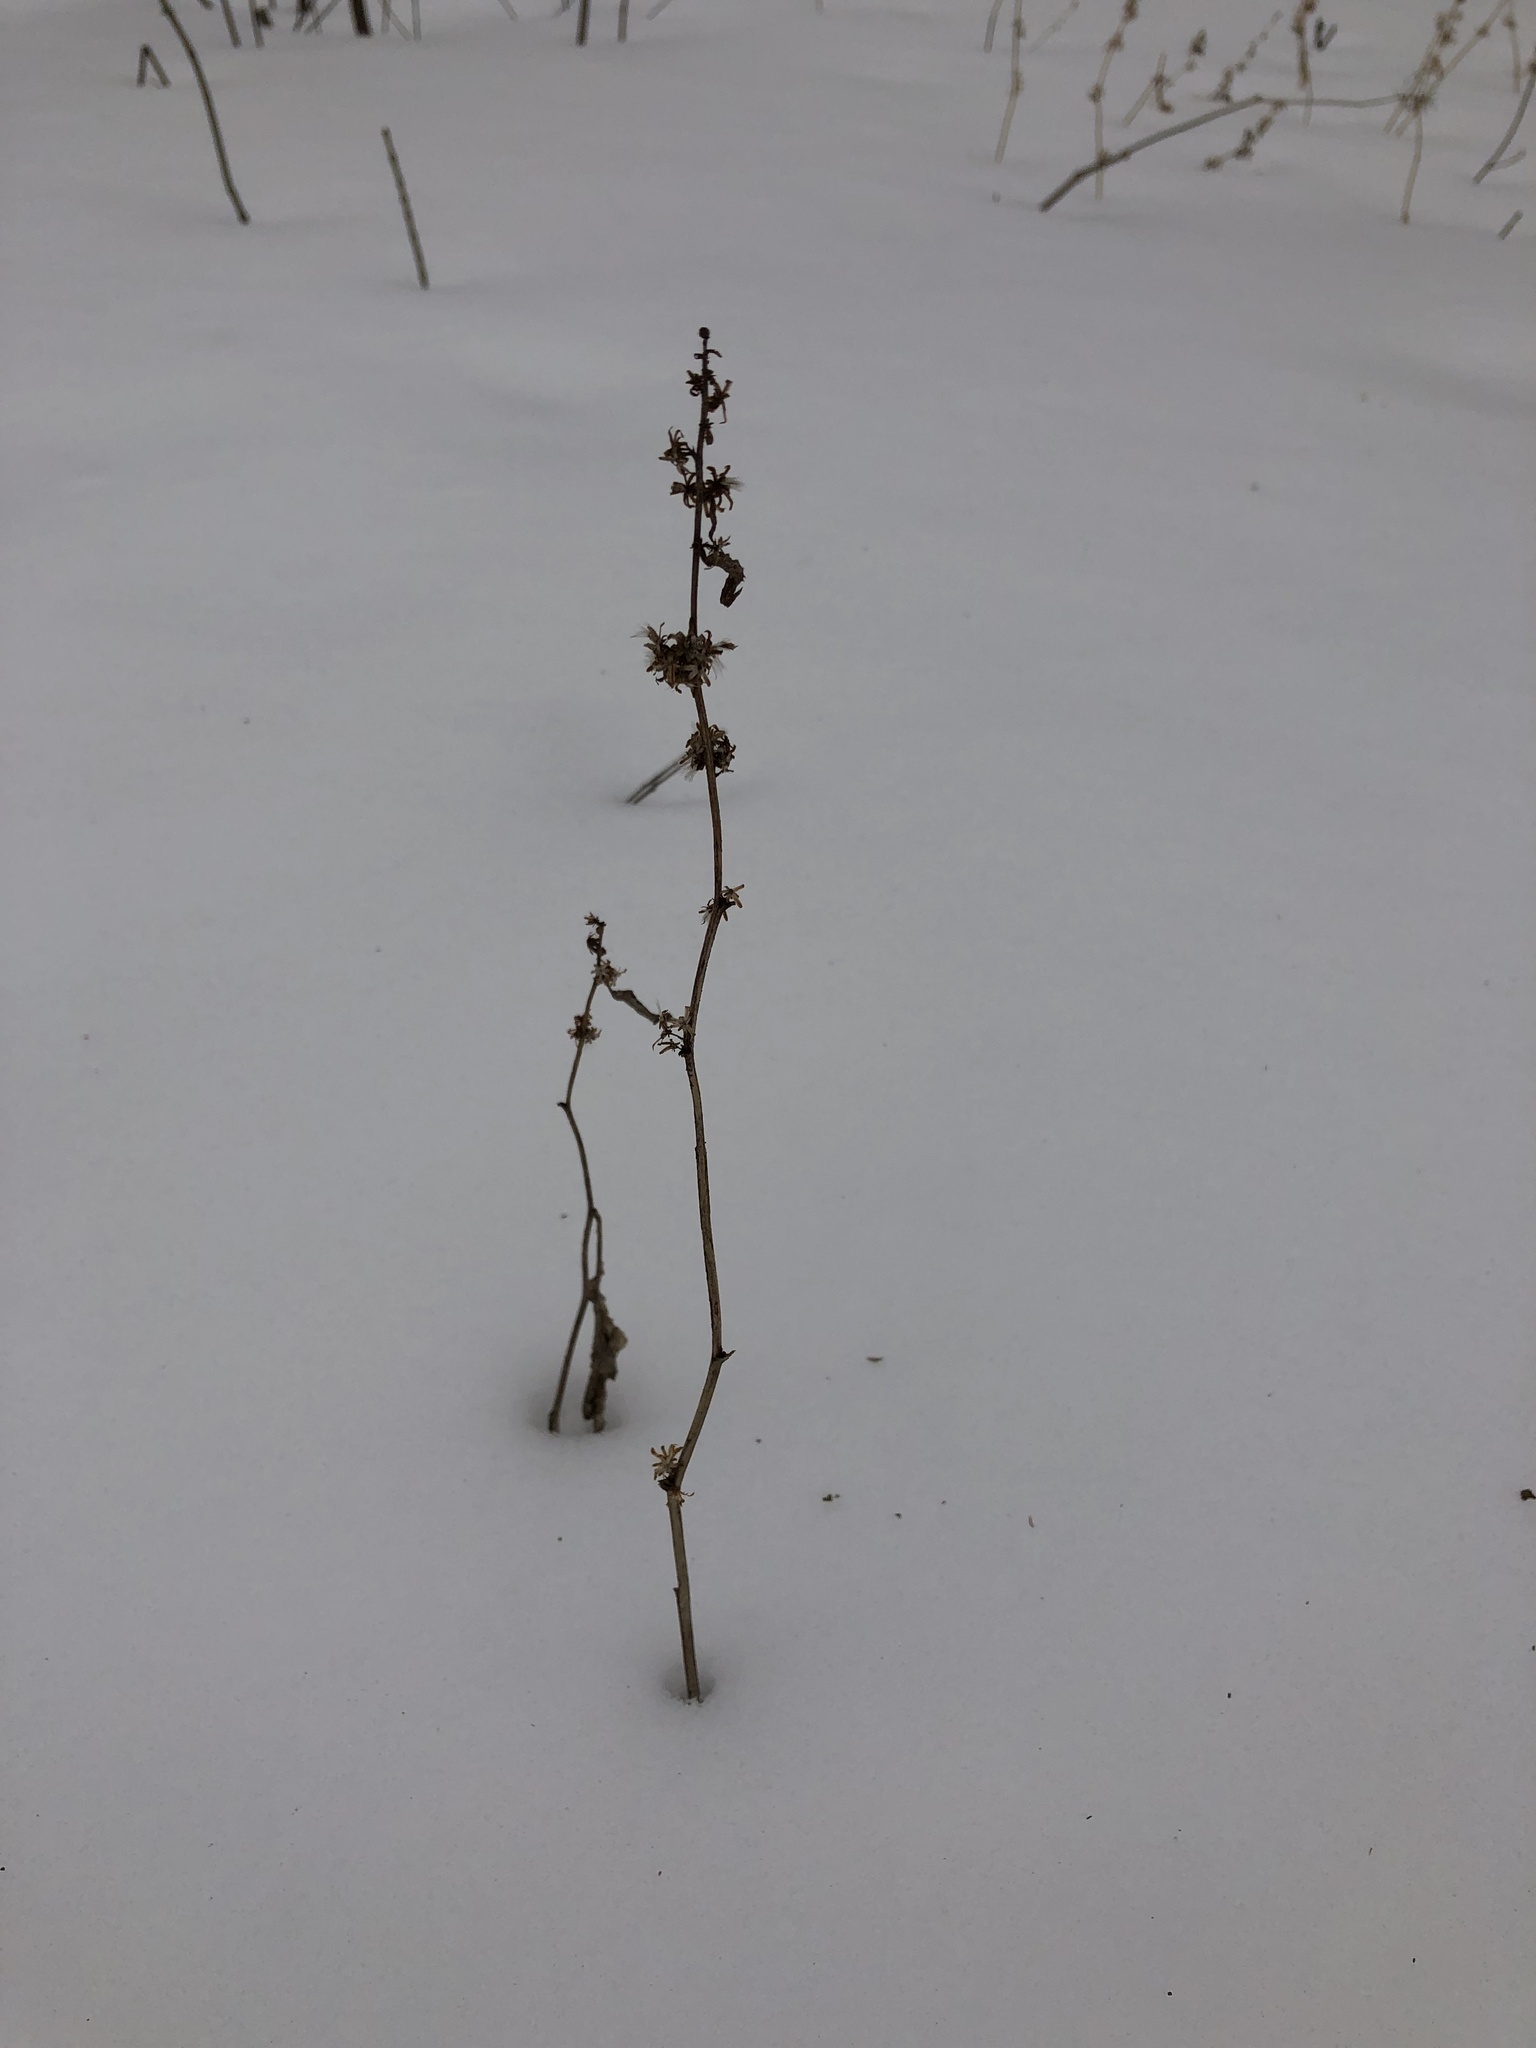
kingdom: Plantae
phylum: Tracheophyta
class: Magnoliopsida
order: Asterales
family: Asteraceae
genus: Solidago
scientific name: Solidago flexicaulis
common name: Zig-zag goldenrod
